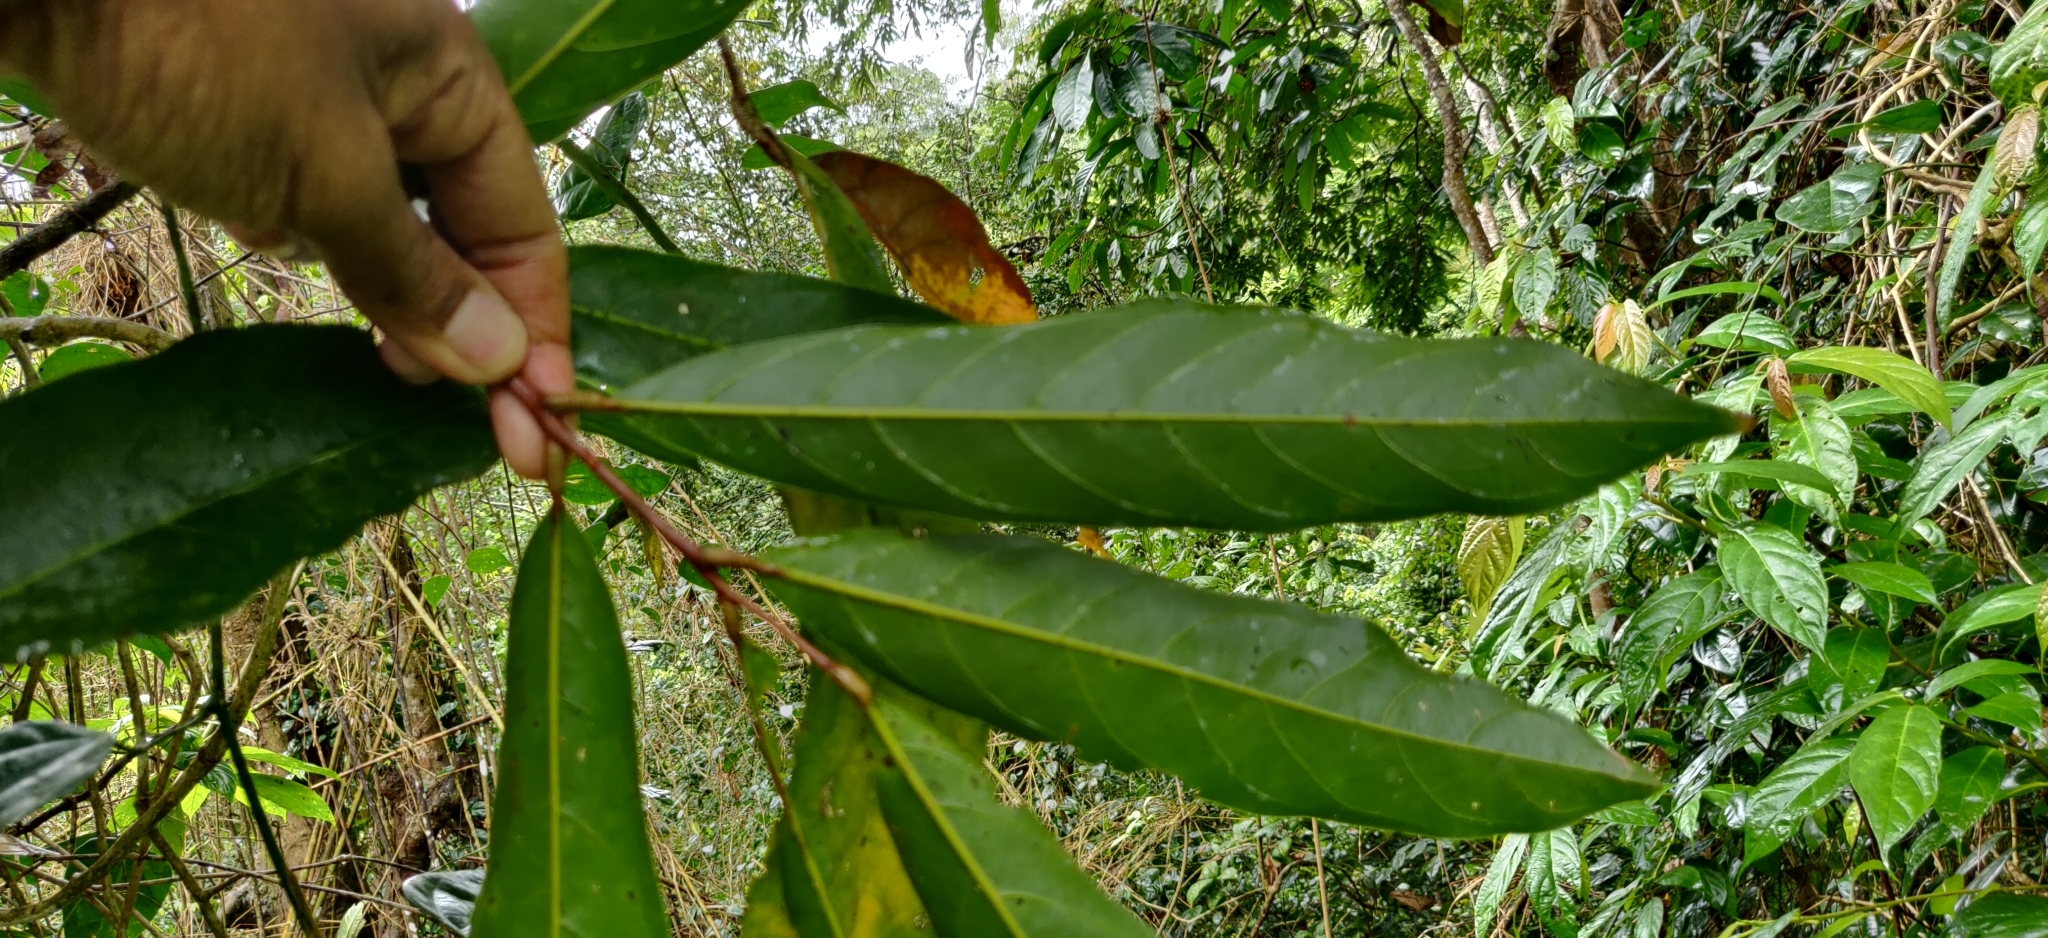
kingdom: Plantae
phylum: Tracheophyta
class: Magnoliopsida
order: Sapindales
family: Sapindaceae
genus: Lepisanthes
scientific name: Lepisanthes tetraphylla
